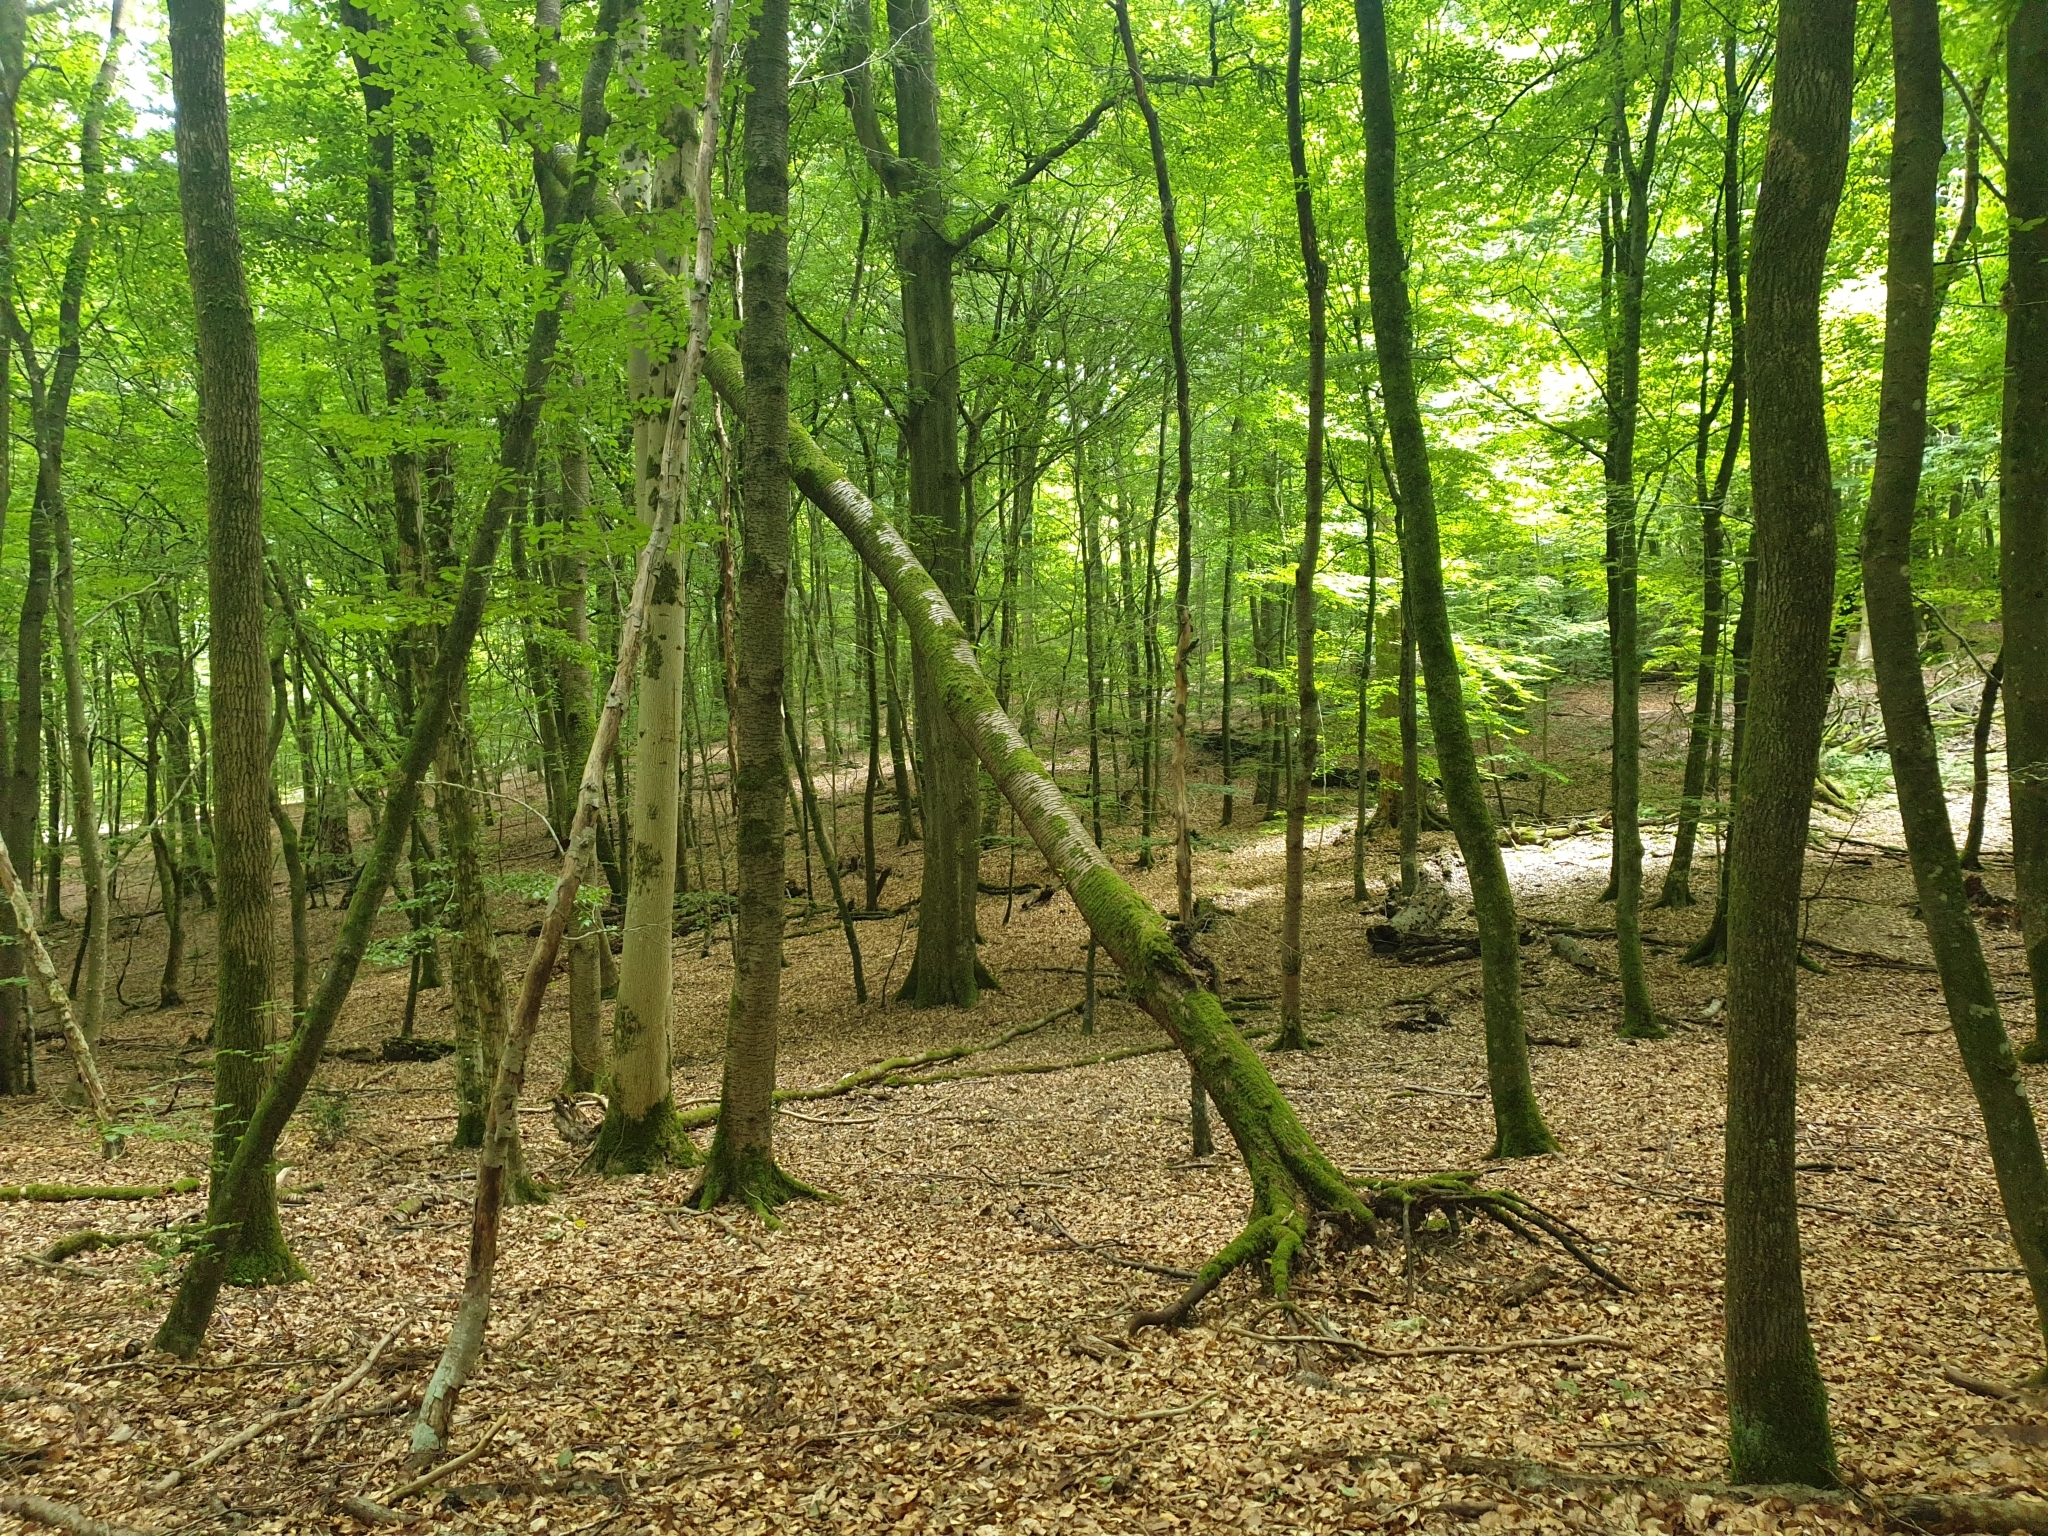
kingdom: Plantae
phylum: Tracheophyta
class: Magnoliopsida
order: Fagales
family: Fagaceae
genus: Fagus
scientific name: Fagus sylvatica
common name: Beech
